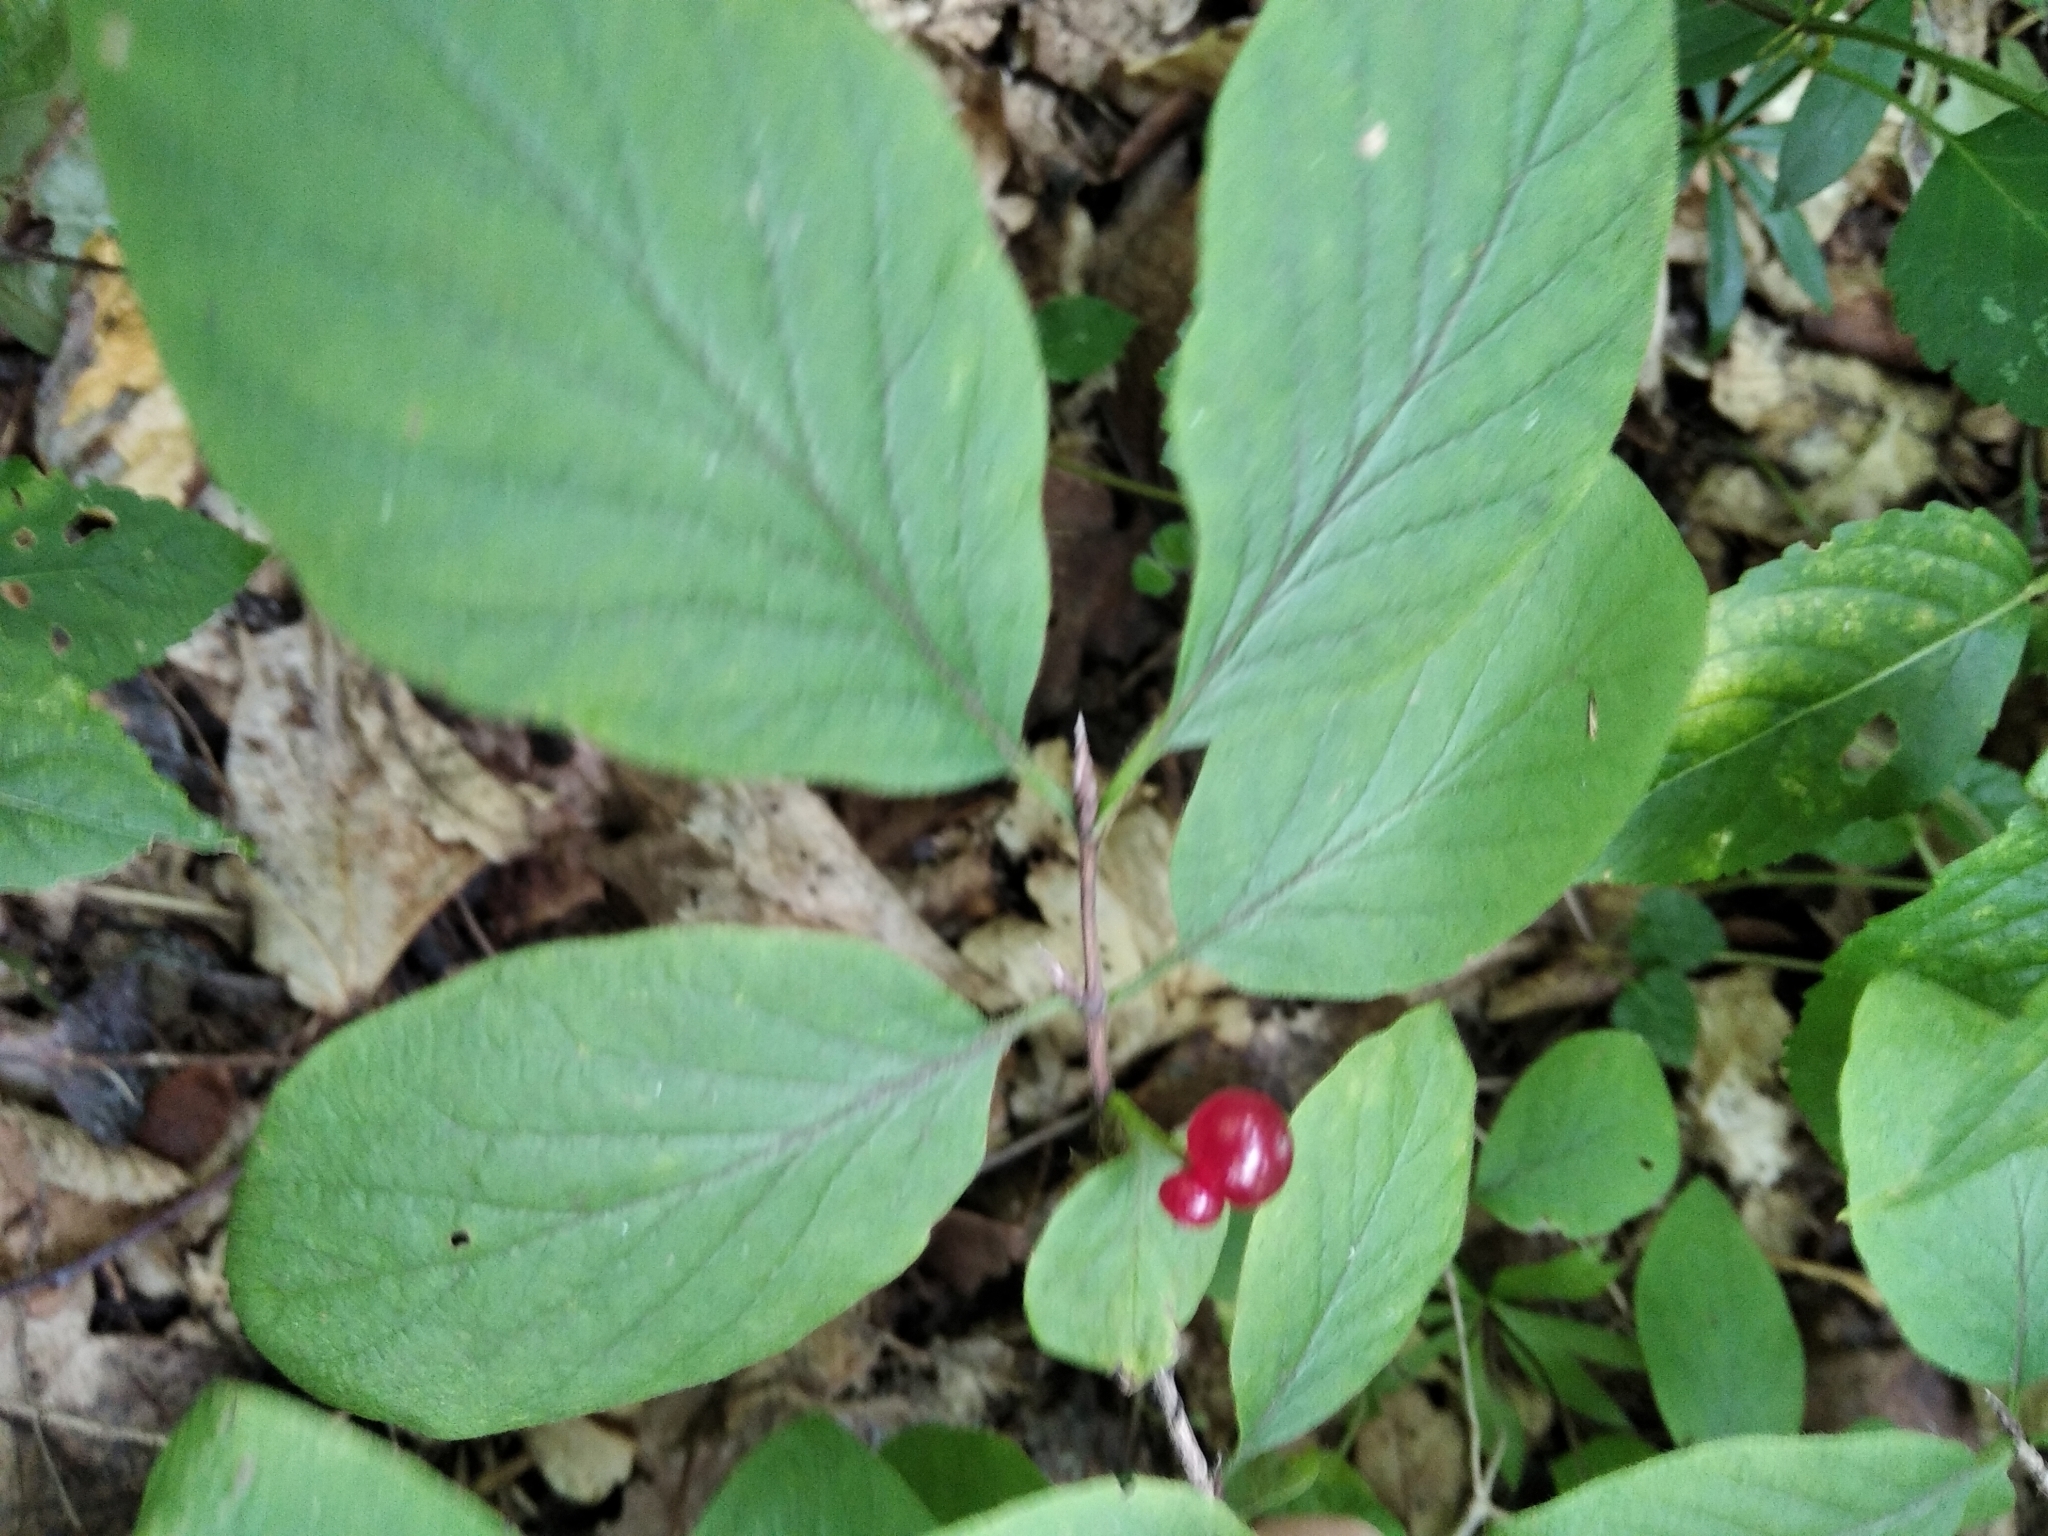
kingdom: Plantae
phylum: Tracheophyta
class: Magnoliopsida
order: Dipsacales
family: Caprifoliaceae
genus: Lonicera
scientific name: Lonicera xylosteum
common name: Fly honeysuckle
